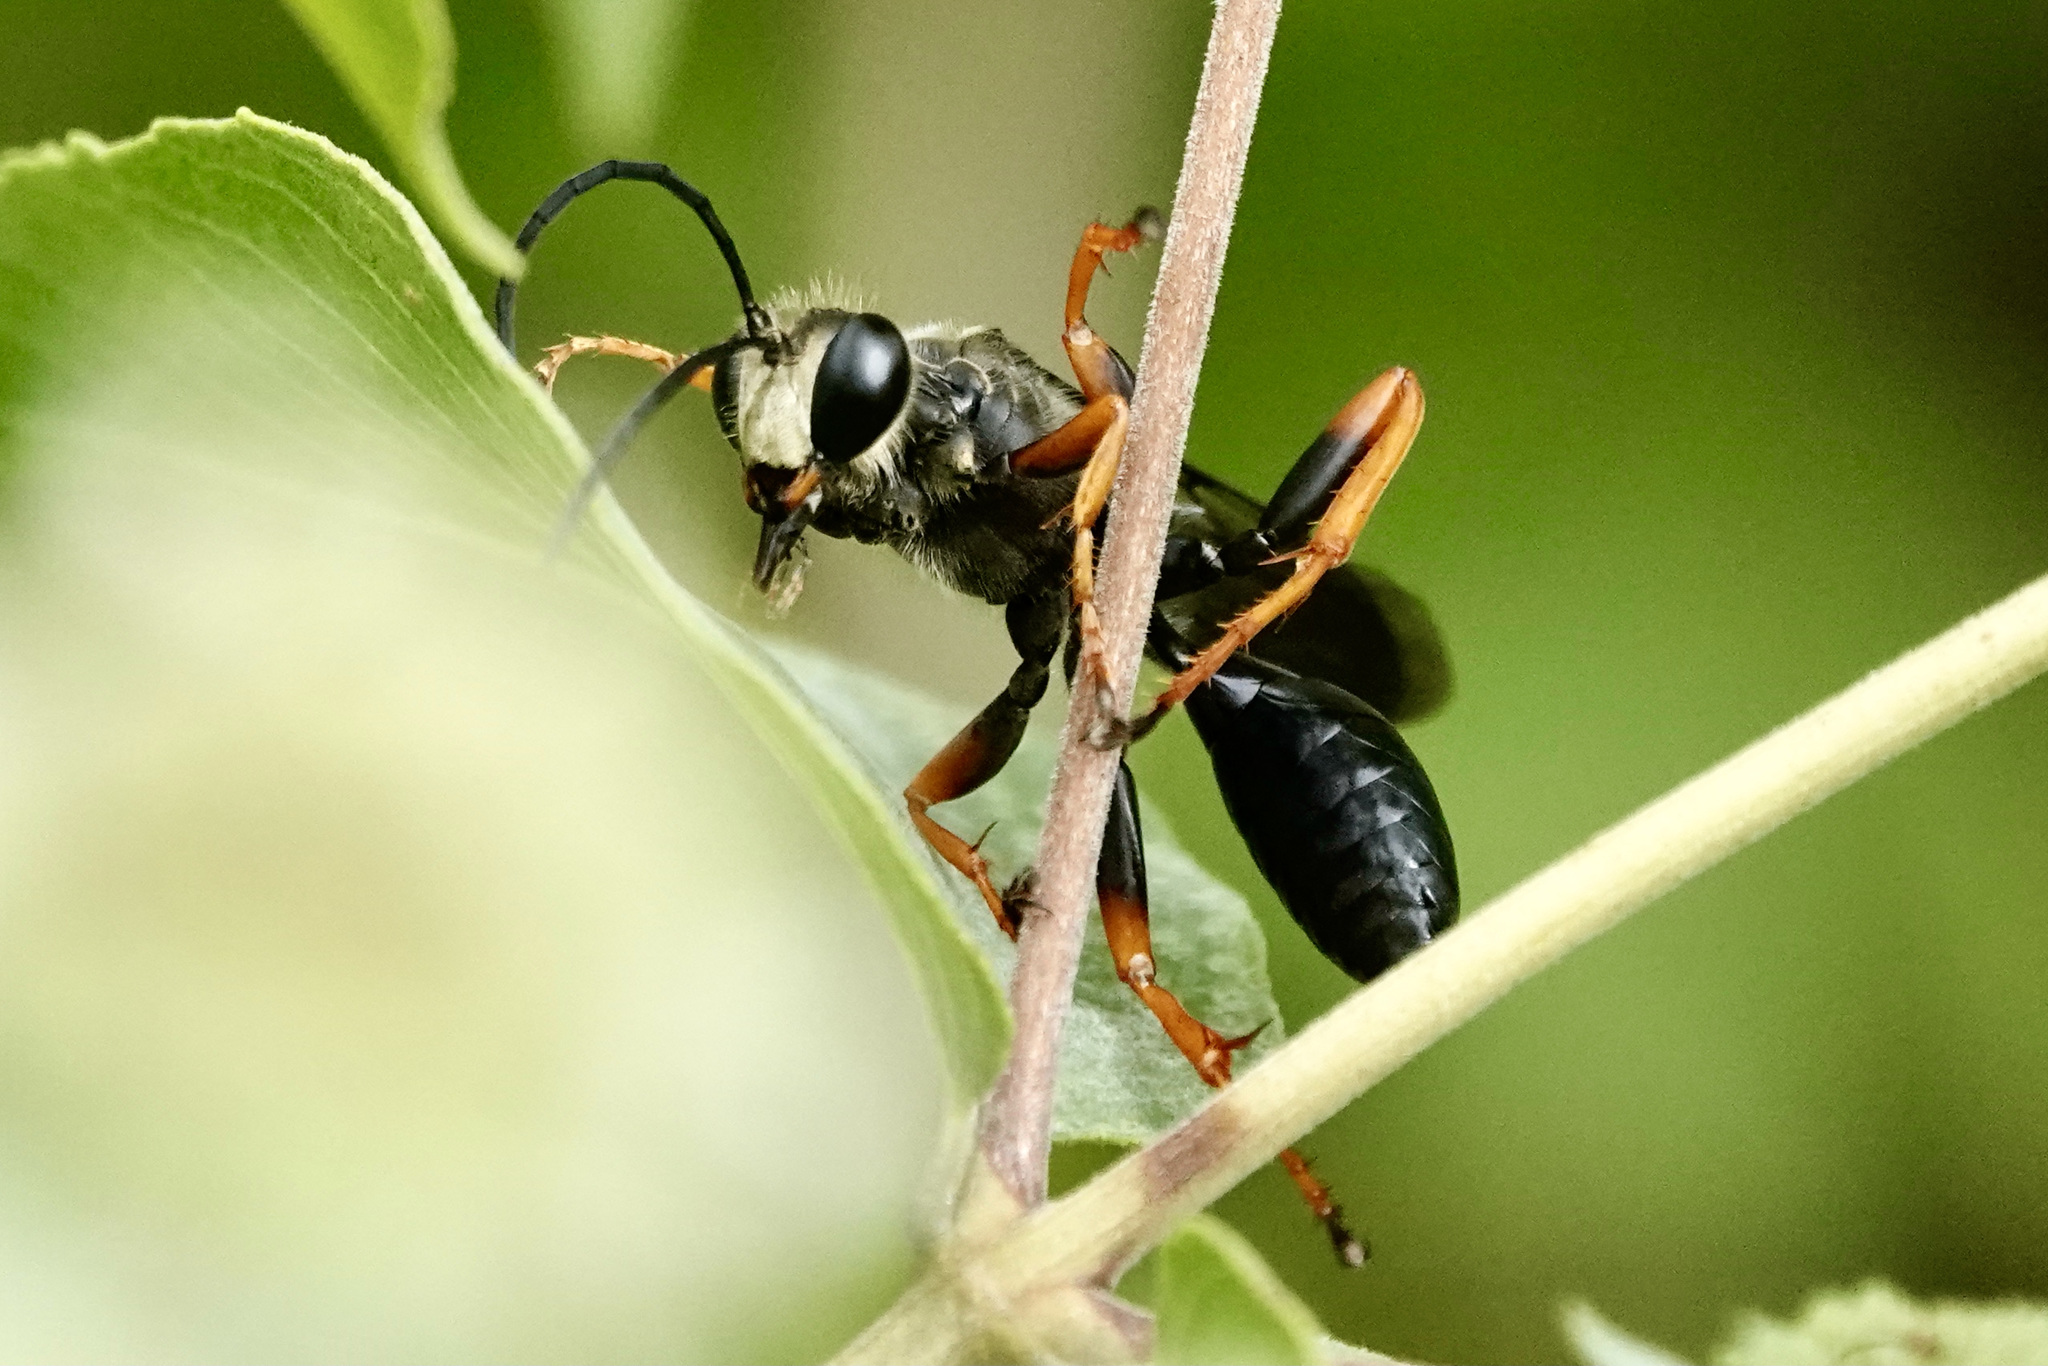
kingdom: Animalia
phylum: Arthropoda
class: Insecta
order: Hymenoptera
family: Sphecidae
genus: Sphex
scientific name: Sphex nudus
